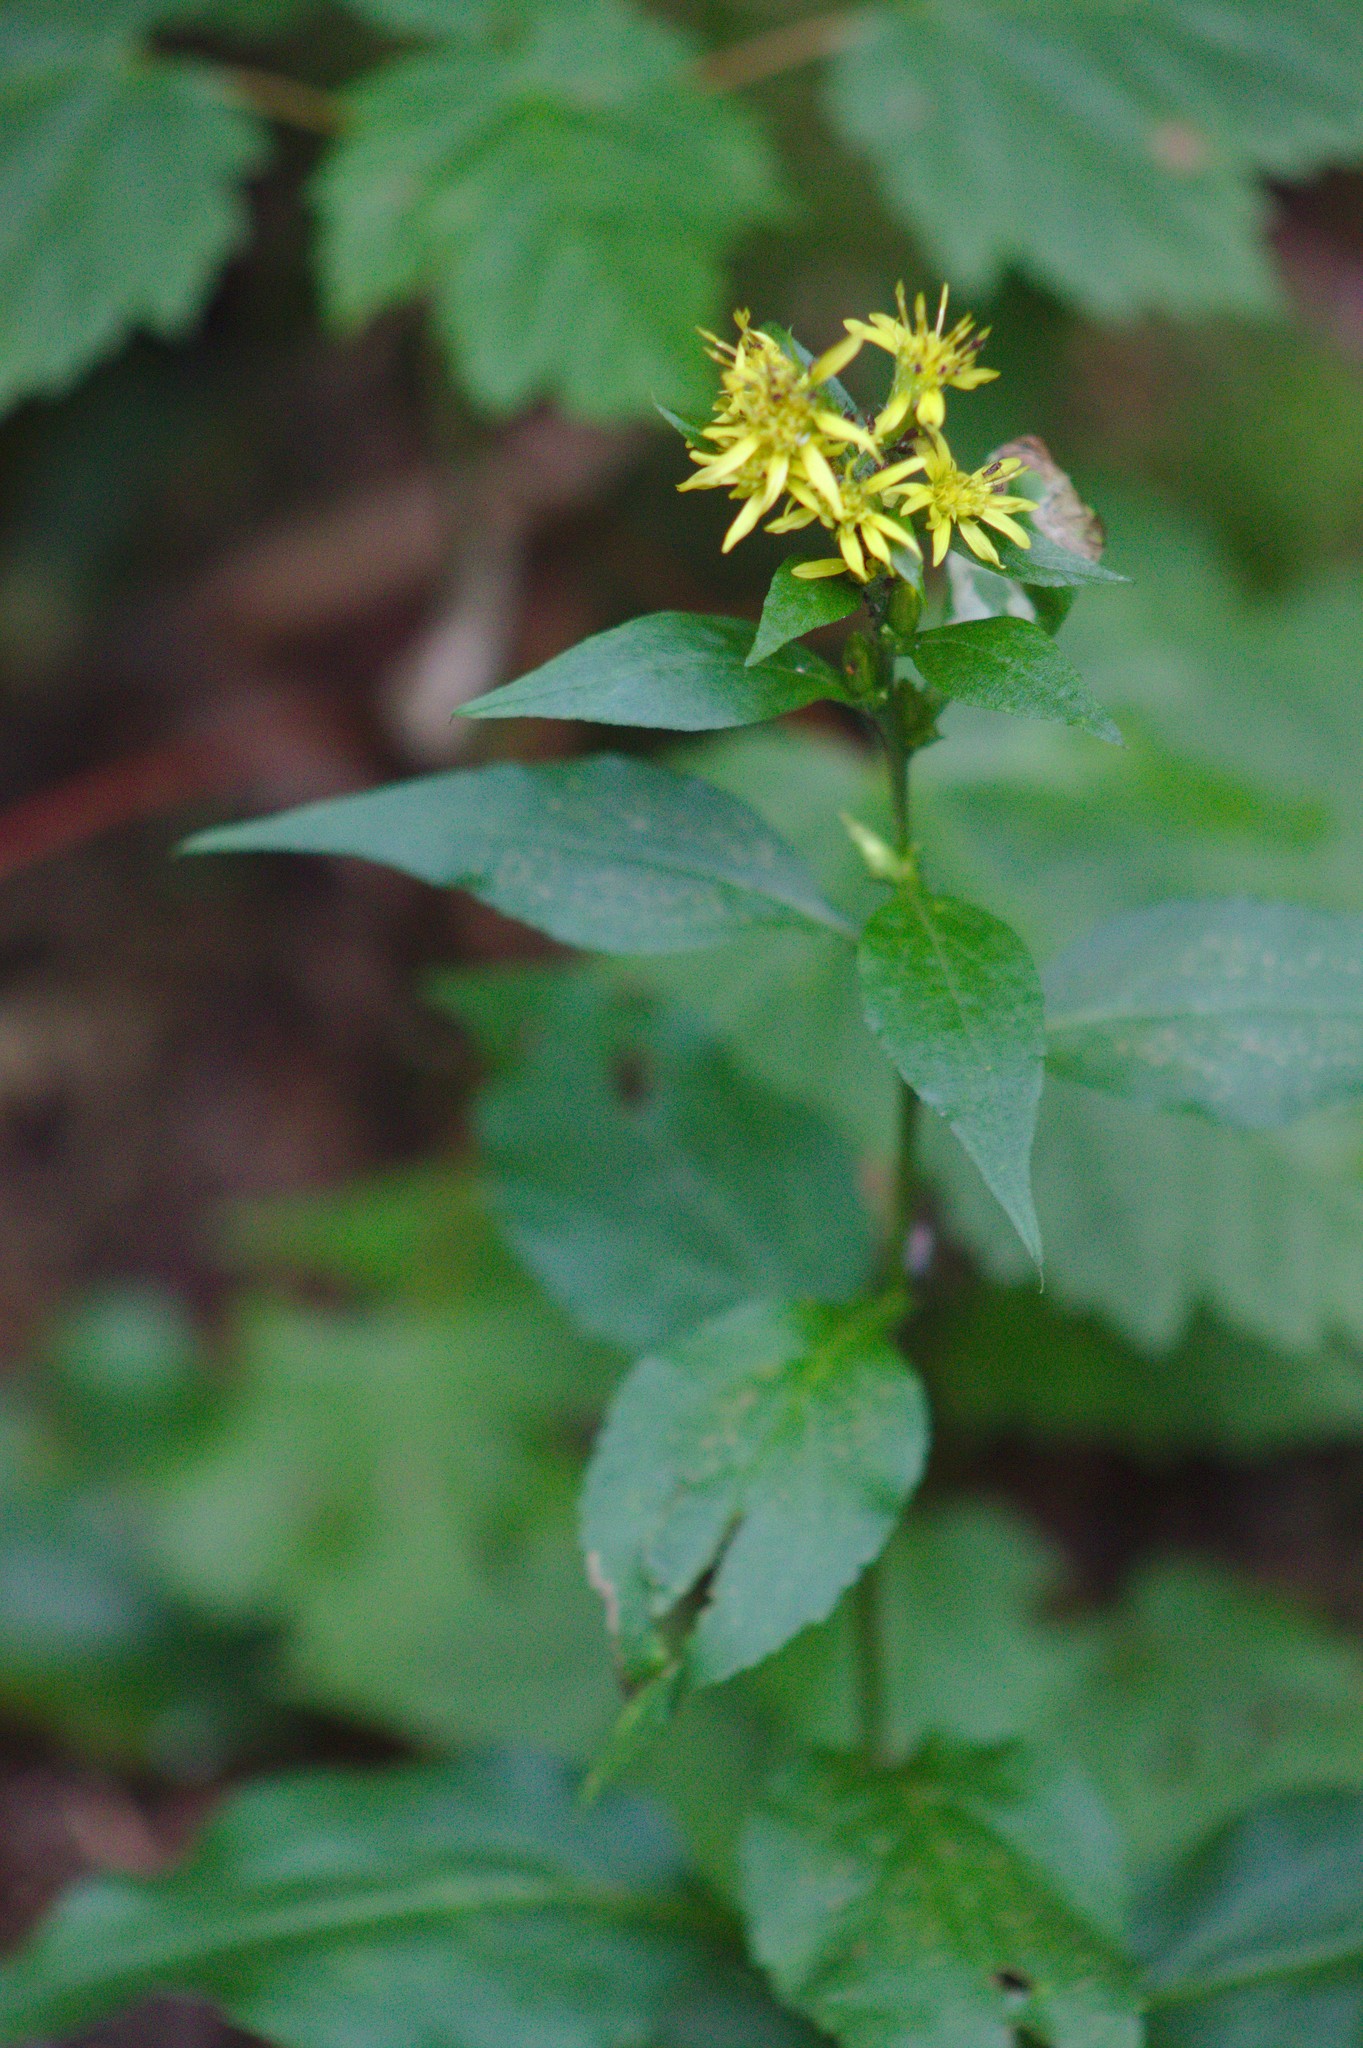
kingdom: Plantae
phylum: Tracheophyta
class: Magnoliopsida
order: Asterales
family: Asteraceae
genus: Solidago
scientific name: Solidago macrophylla
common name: Large-leaved goldenrod
